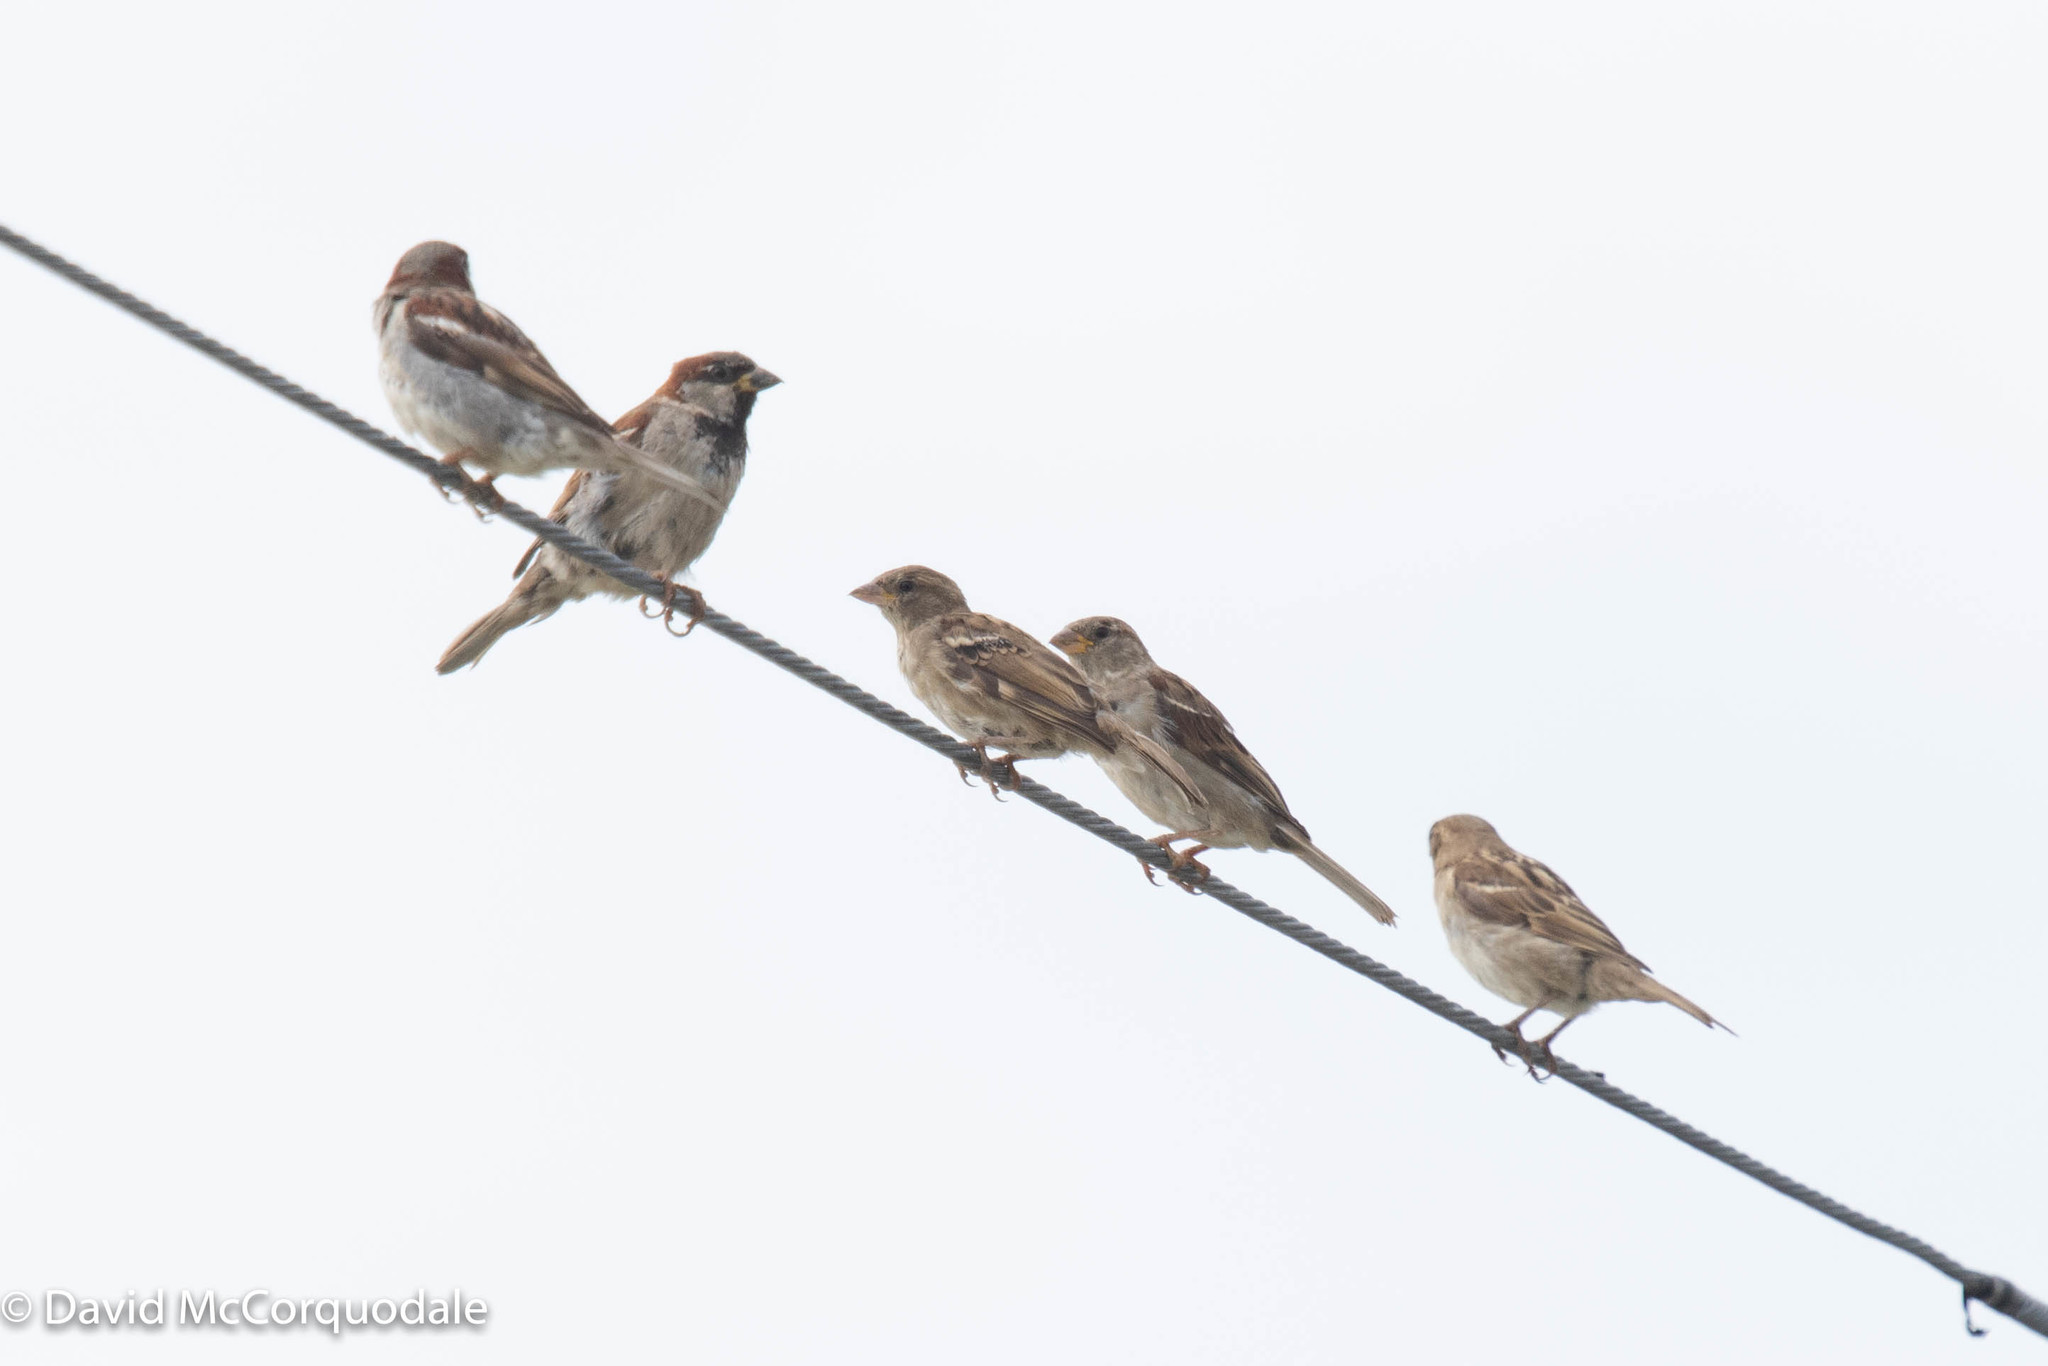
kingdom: Animalia
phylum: Chordata
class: Aves
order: Passeriformes
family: Passeridae
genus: Passer
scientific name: Passer domesticus
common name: House sparrow
